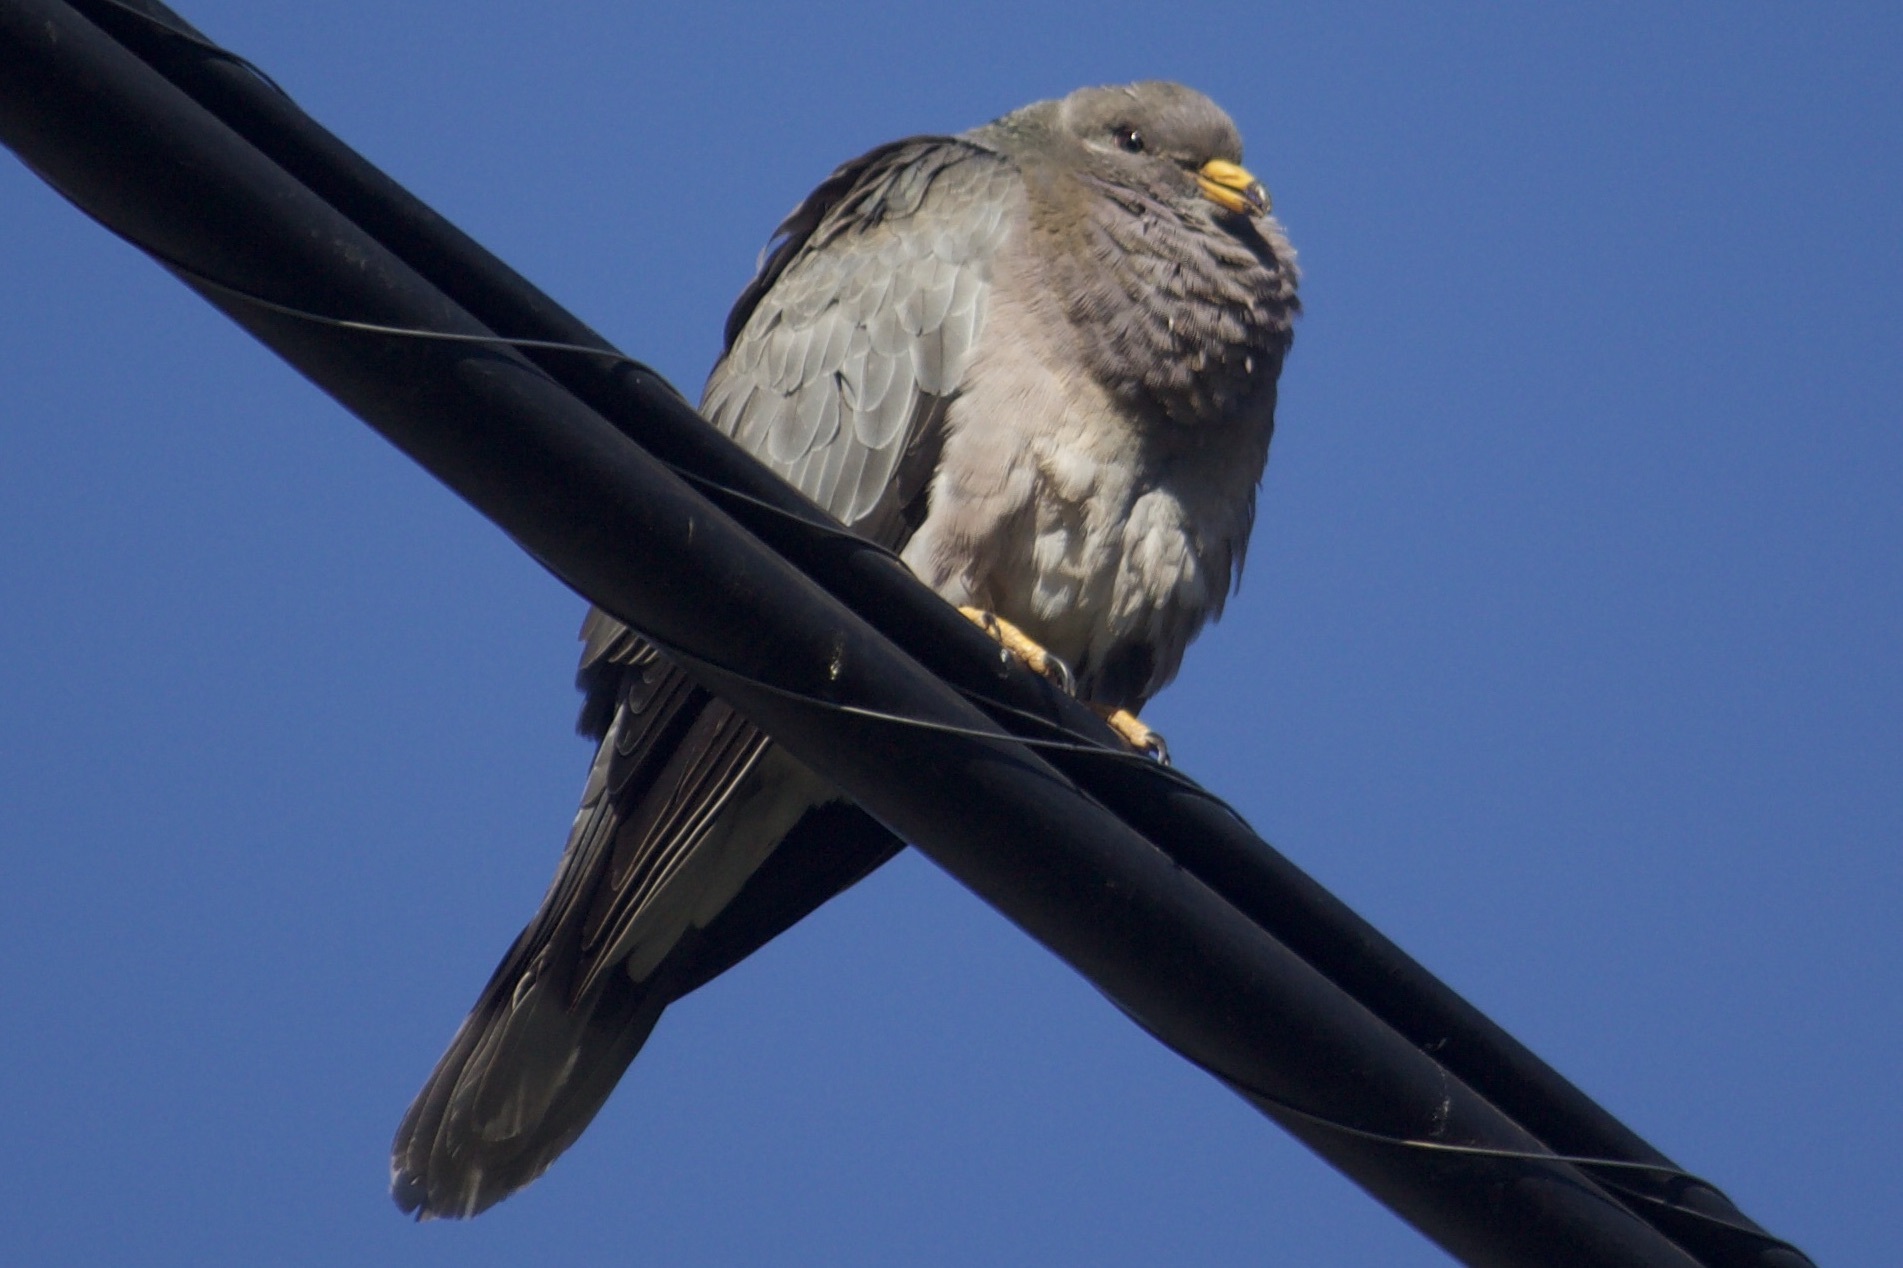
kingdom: Animalia
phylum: Chordata
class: Aves
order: Columbiformes
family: Columbidae
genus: Patagioenas
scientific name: Patagioenas fasciata
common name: Band-tailed pigeon
